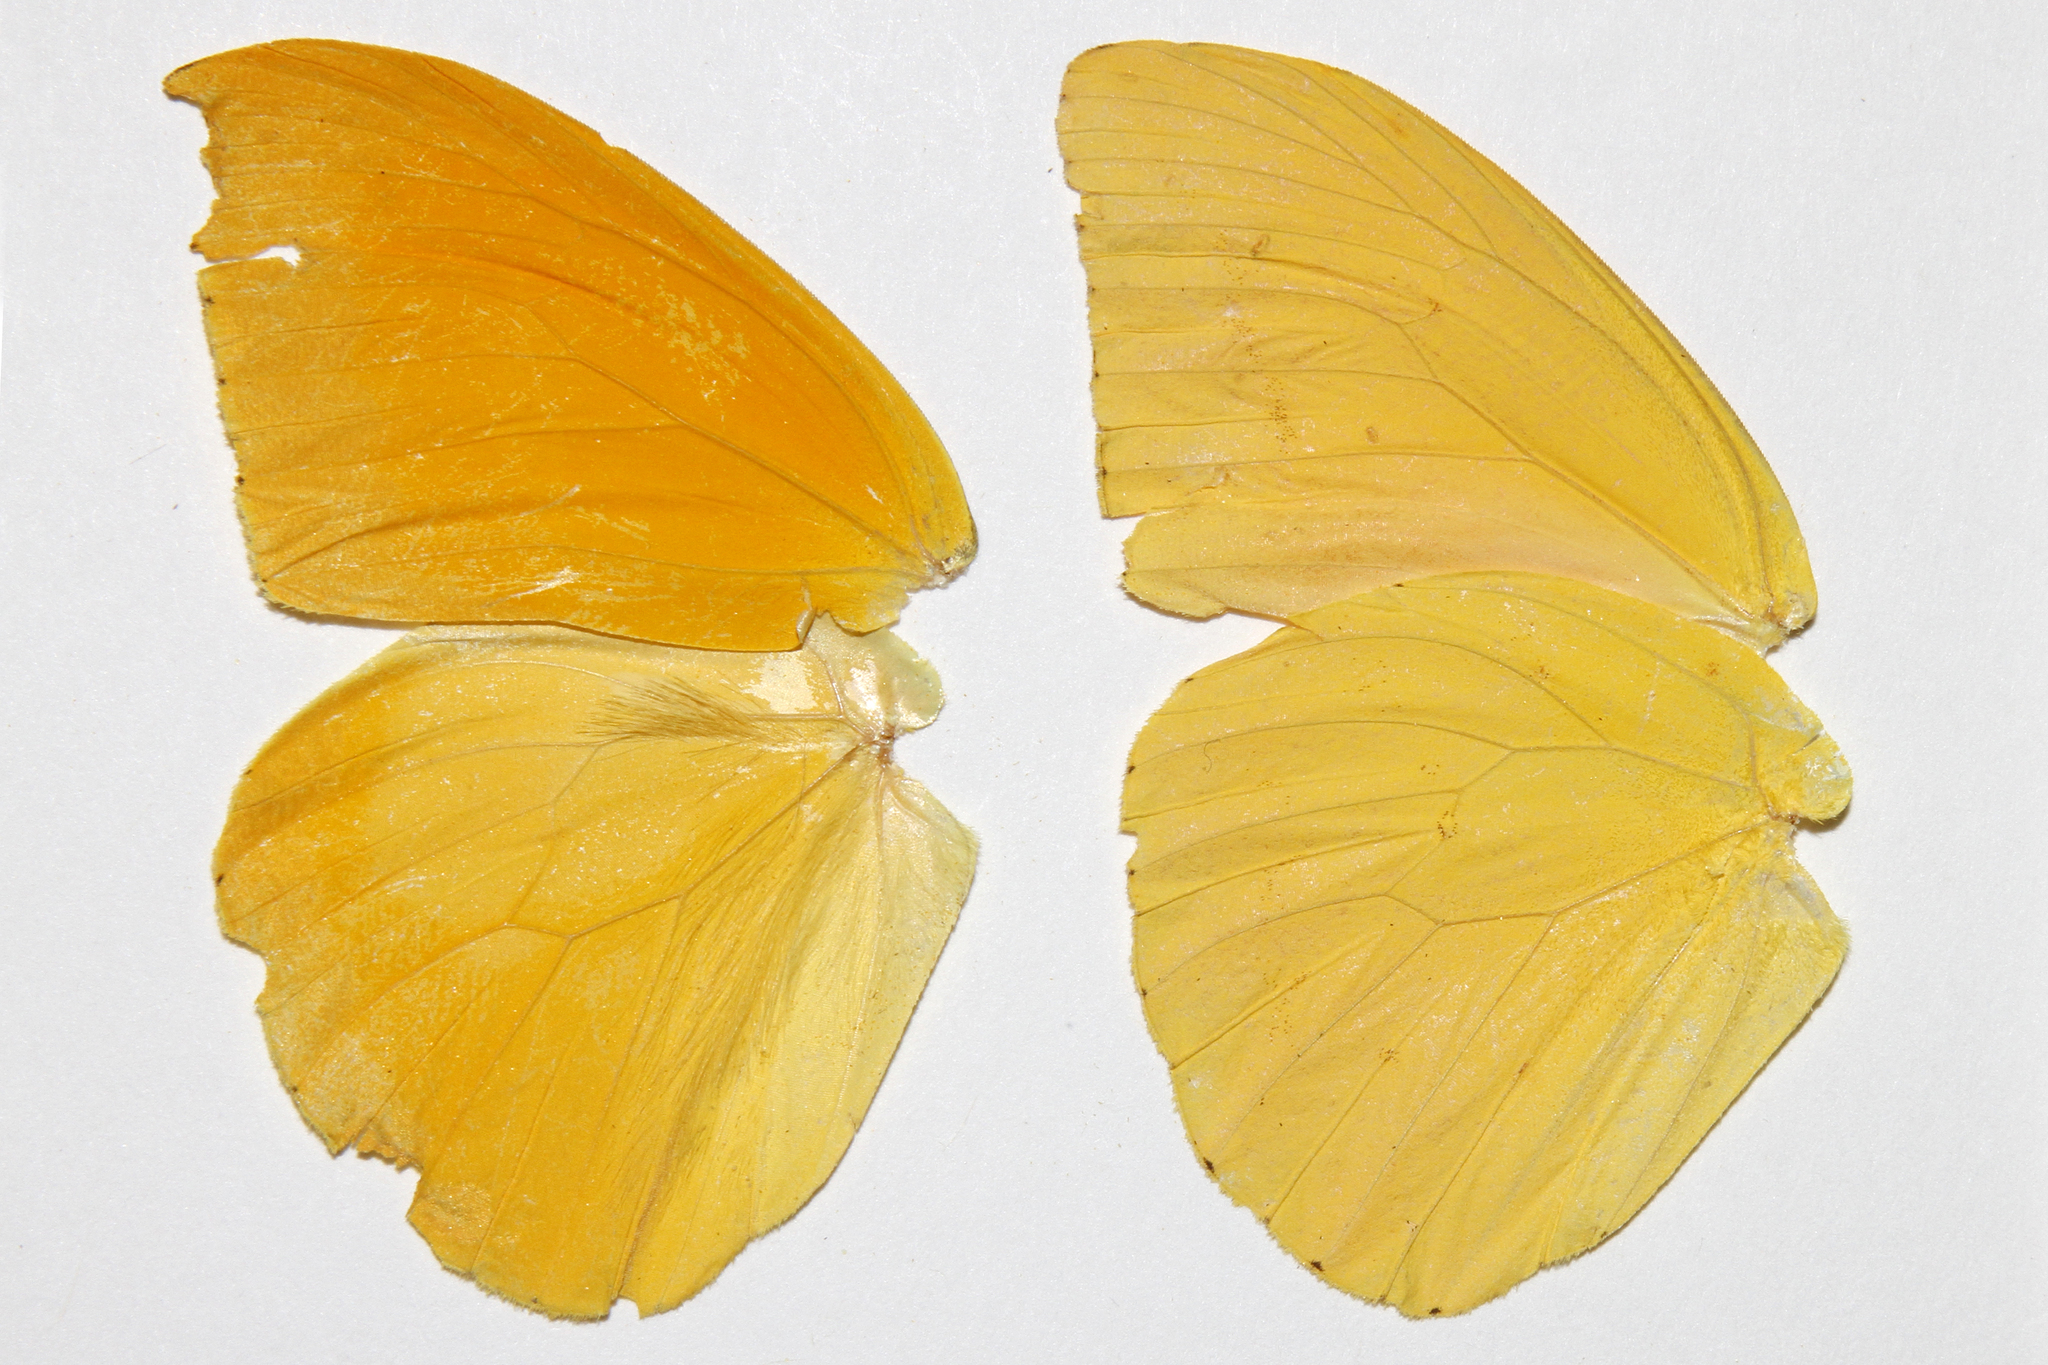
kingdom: Animalia
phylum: Arthropoda
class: Insecta
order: Lepidoptera
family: Pieridae
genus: Phoebis
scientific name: Phoebis agarithe
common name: Large orange sulphur
